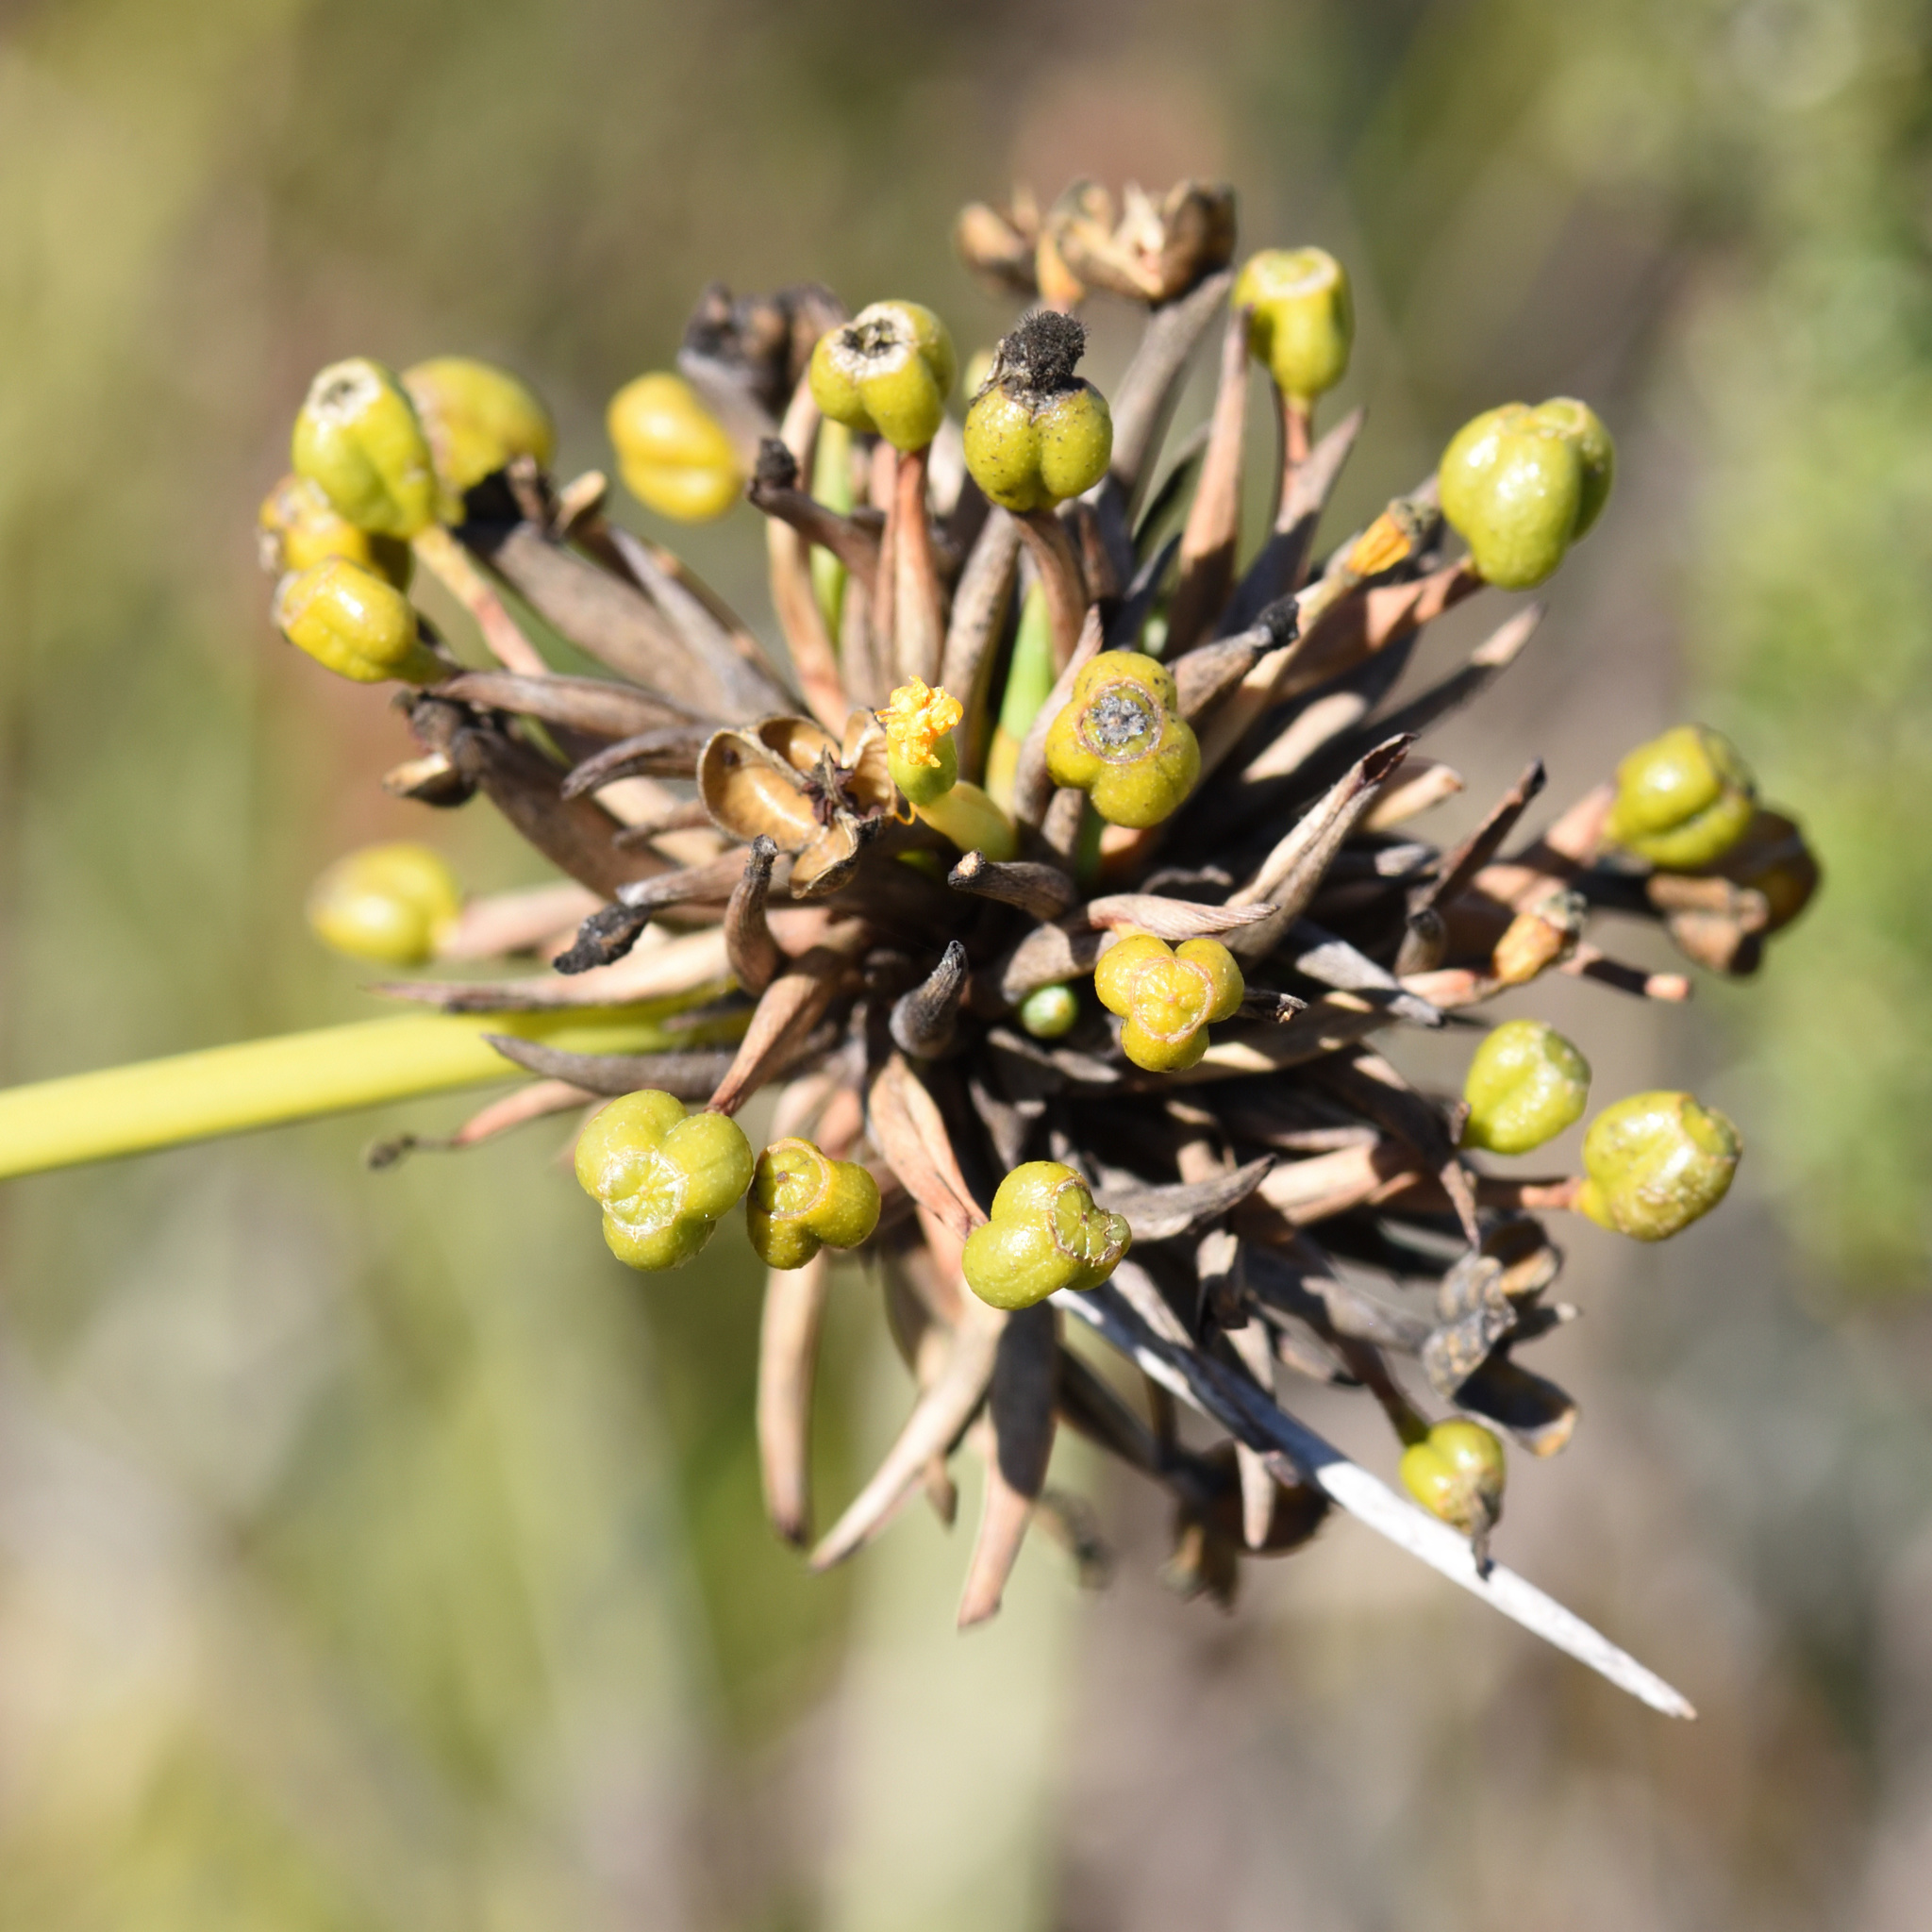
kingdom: Plantae
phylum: Tracheophyta
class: Liliopsida
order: Asparagales
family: Iridaceae
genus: Bobartia
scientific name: Bobartia orientalis
